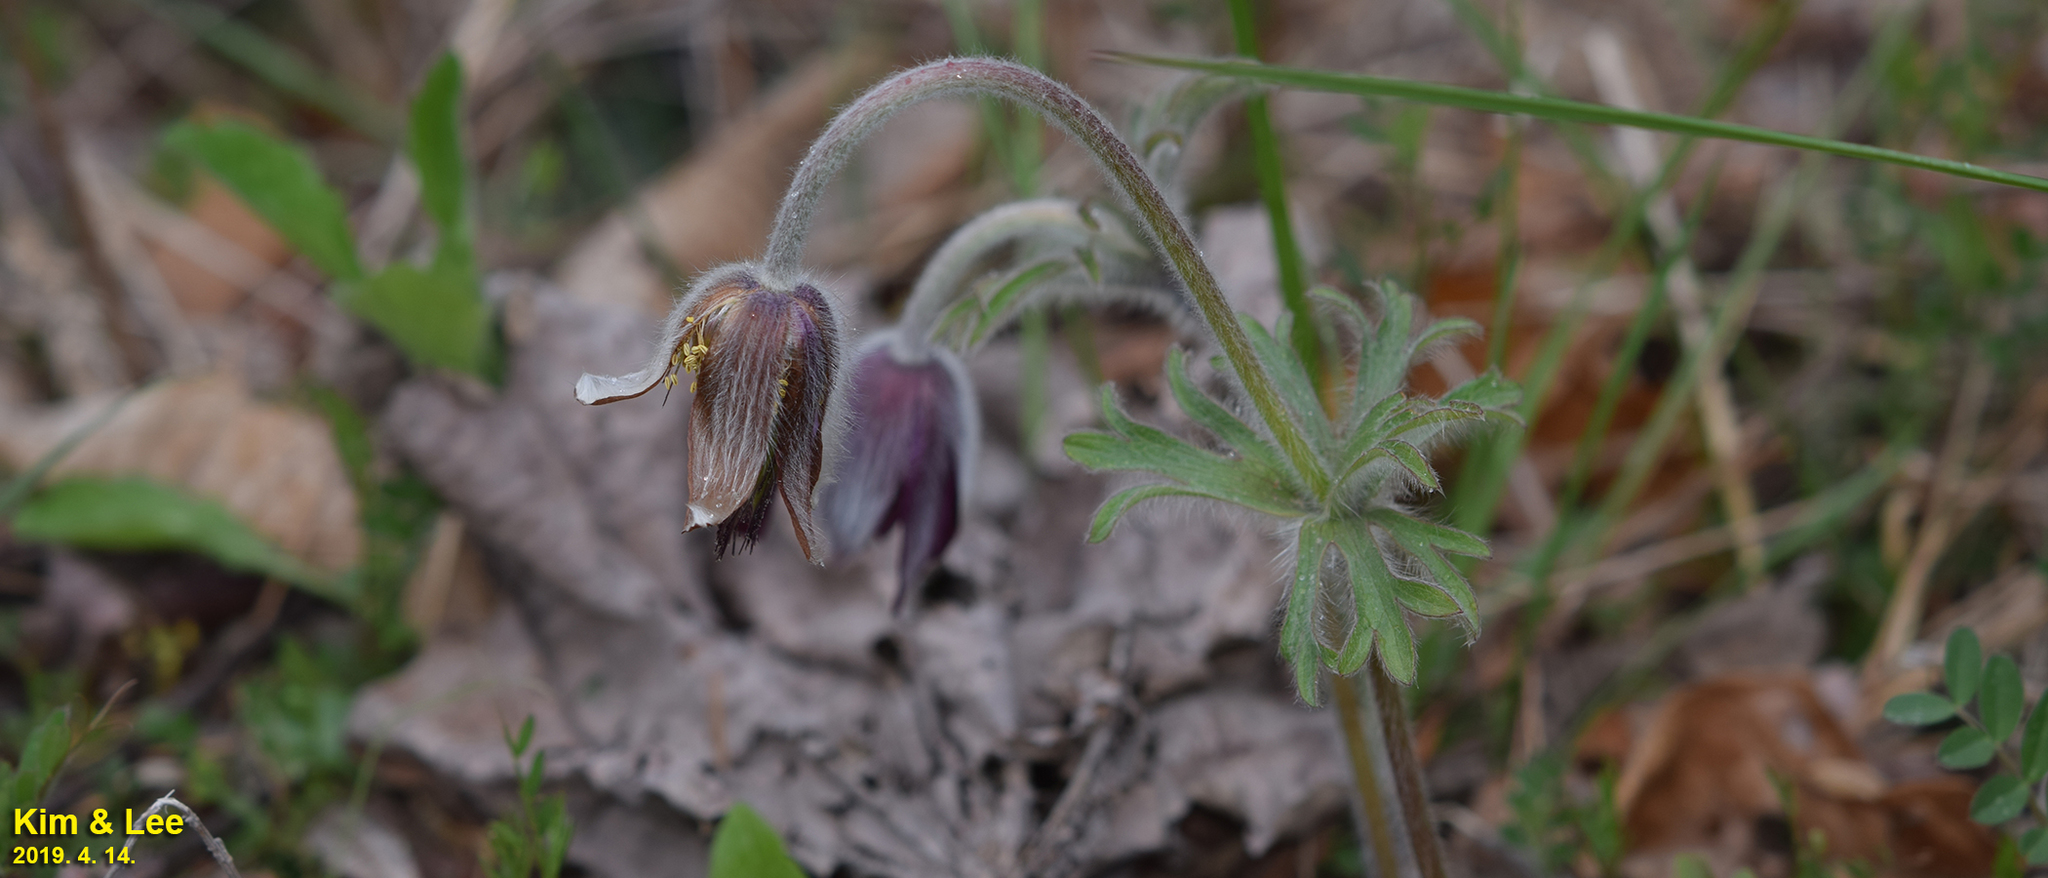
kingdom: Plantae
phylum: Tracheophyta
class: Magnoliopsida
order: Ranunculales
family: Ranunculaceae
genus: Pulsatilla
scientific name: Pulsatilla cernua
